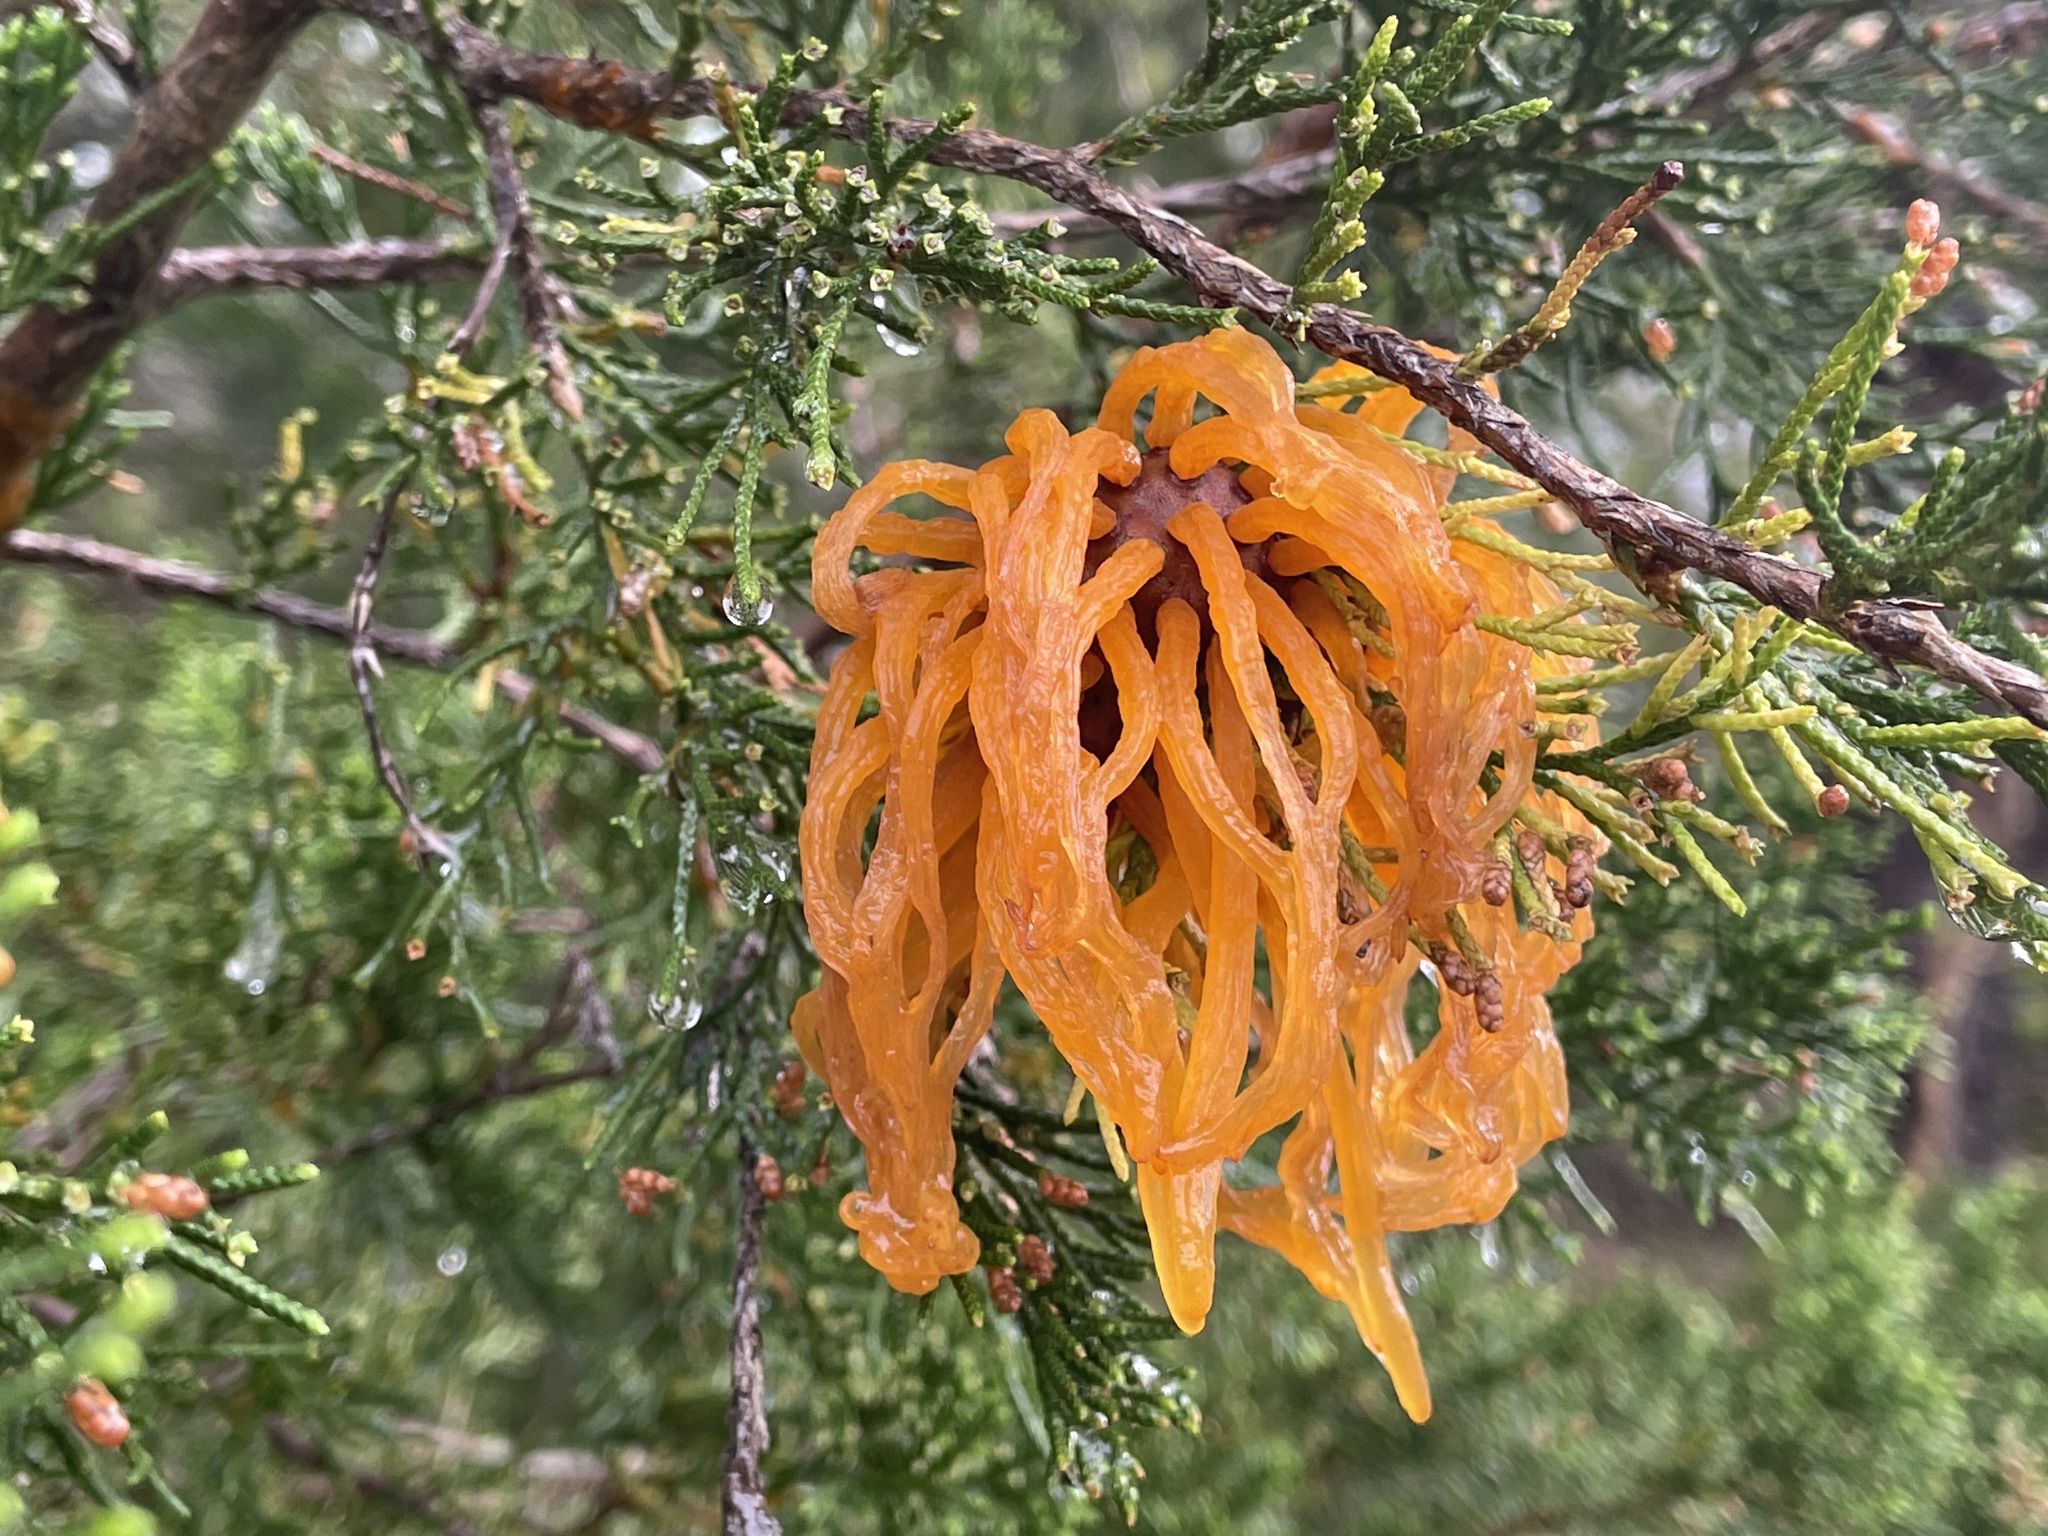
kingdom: Fungi
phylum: Basidiomycota
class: Pucciniomycetes
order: Pucciniales
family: Gymnosporangiaceae
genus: Gymnosporangium
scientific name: Gymnosporangium juniperi-virginianae
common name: Juniper-apple rust
